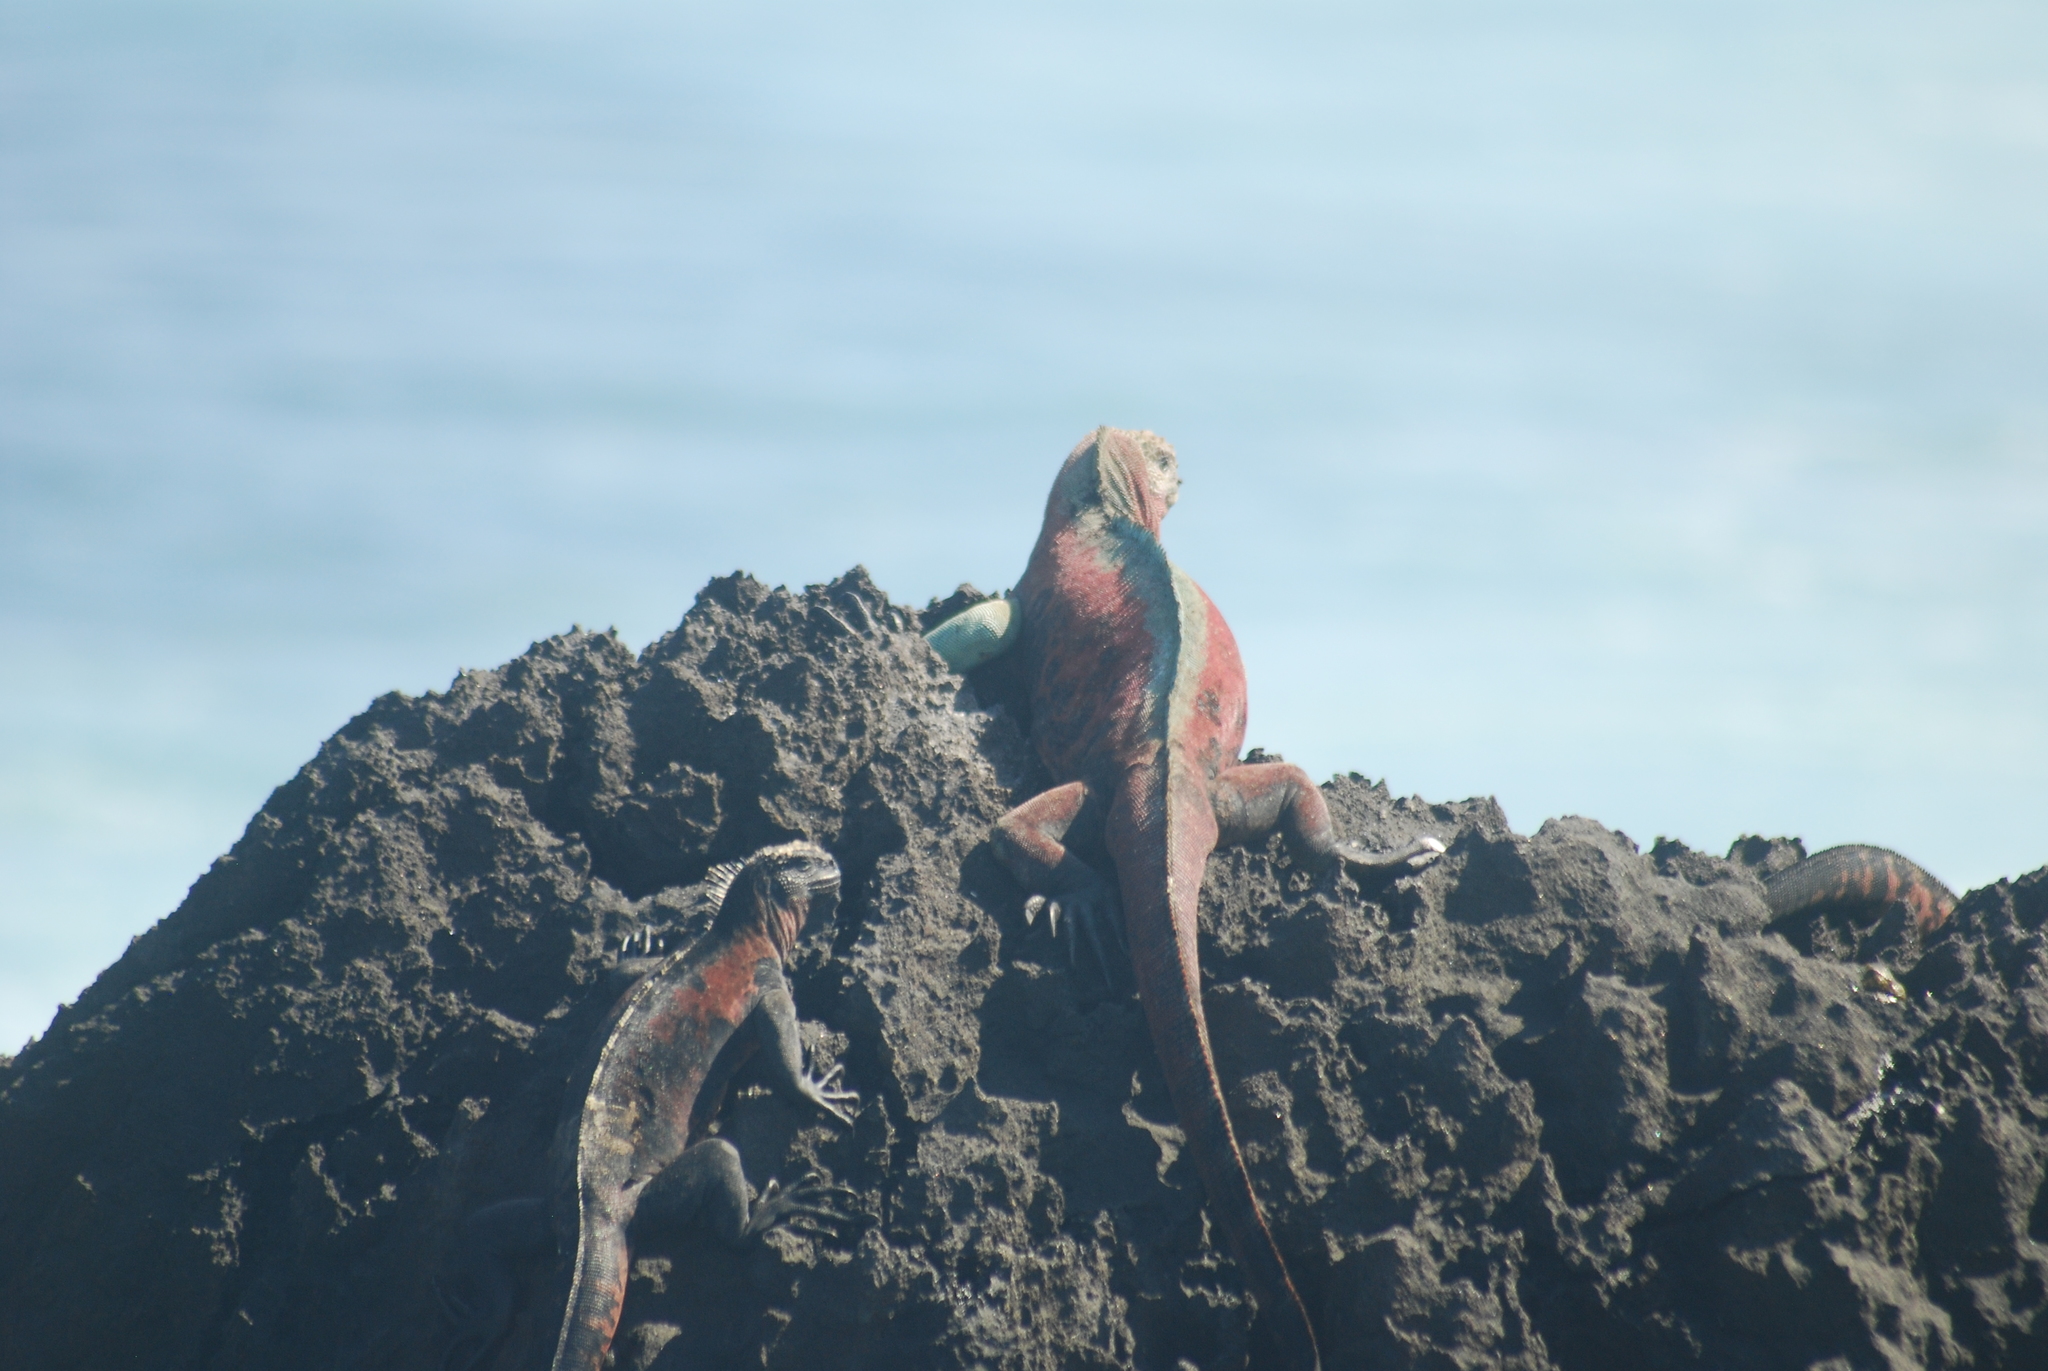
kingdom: Animalia
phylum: Chordata
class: Squamata
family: Iguanidae
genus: Amblyrhynchus
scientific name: Amblyrhynchus cristatus
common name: Marine iguana
